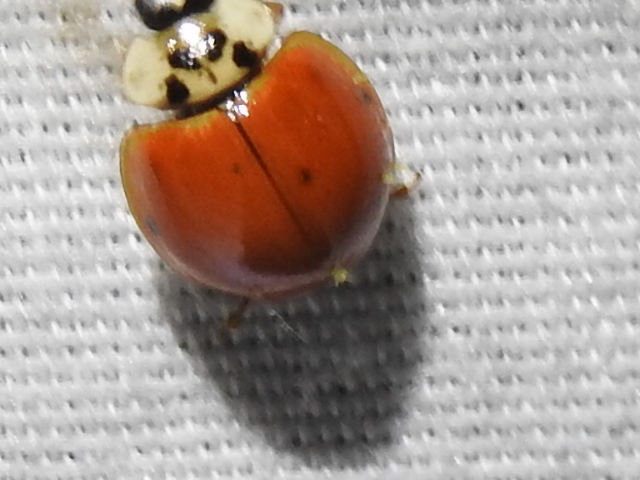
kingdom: Fungi
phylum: Ascomycota
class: Laboulbeniomycetes
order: Laboulbeniales
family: Laboulbeniaceae
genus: Hesperomyces
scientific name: Hesperomyces harmoniae
